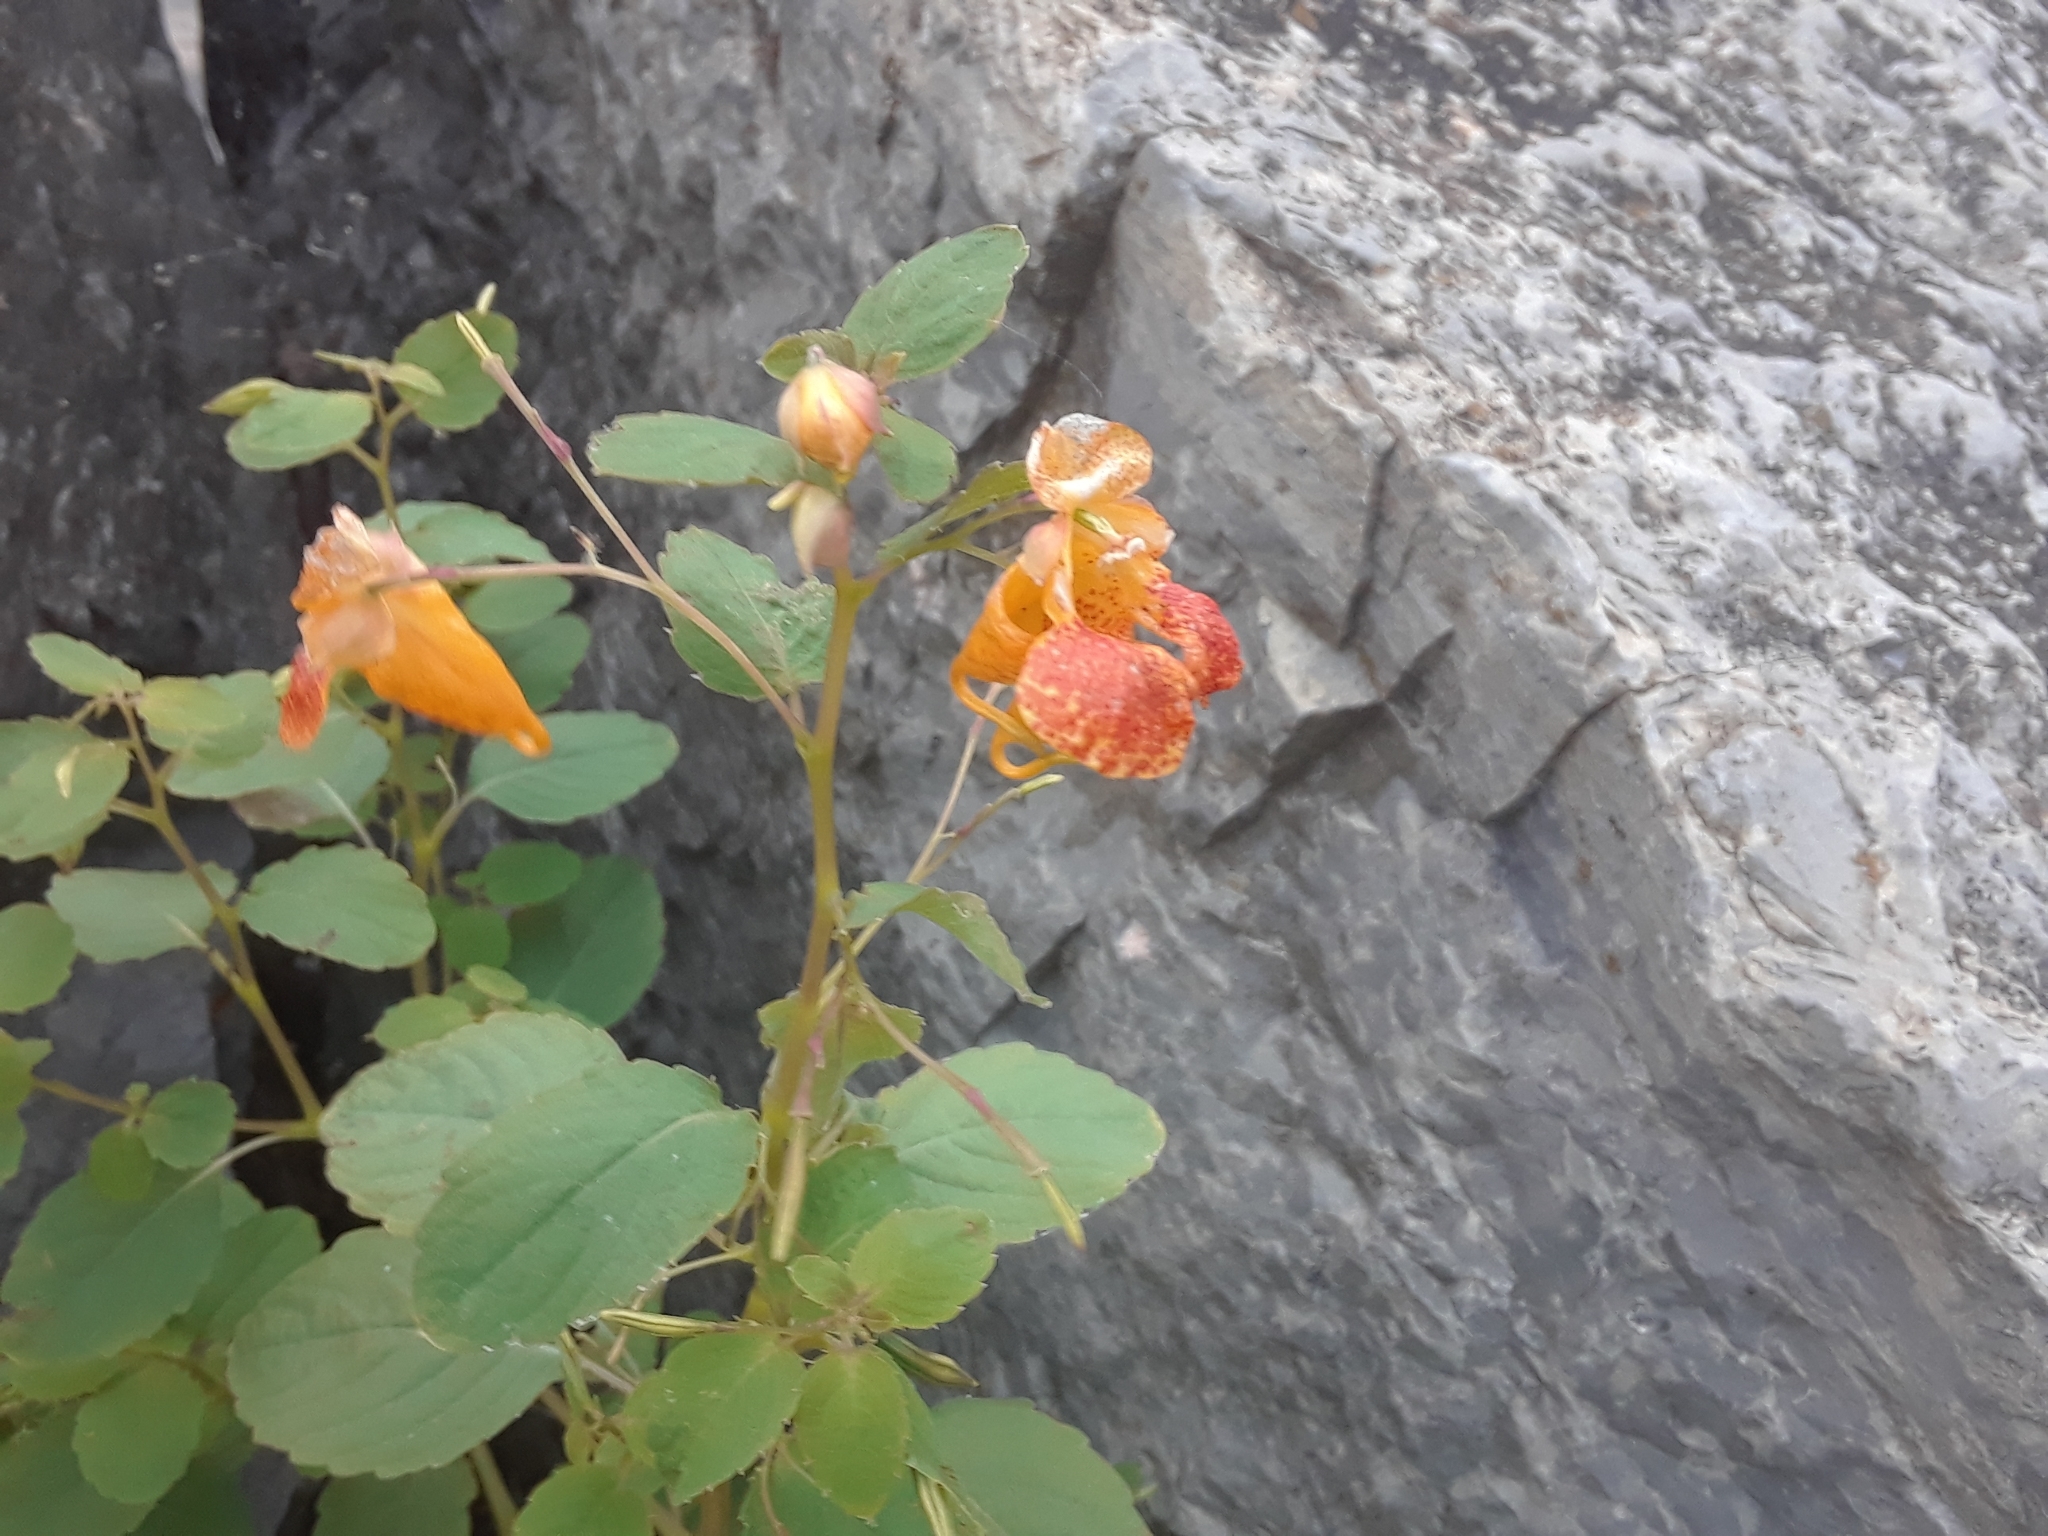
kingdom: Plantae
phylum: Tracheophyta
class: Magnoliopsida
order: Ericales
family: Balsaminaceae
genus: Impatiens
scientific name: Impatiens capensis
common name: Orange balsam
